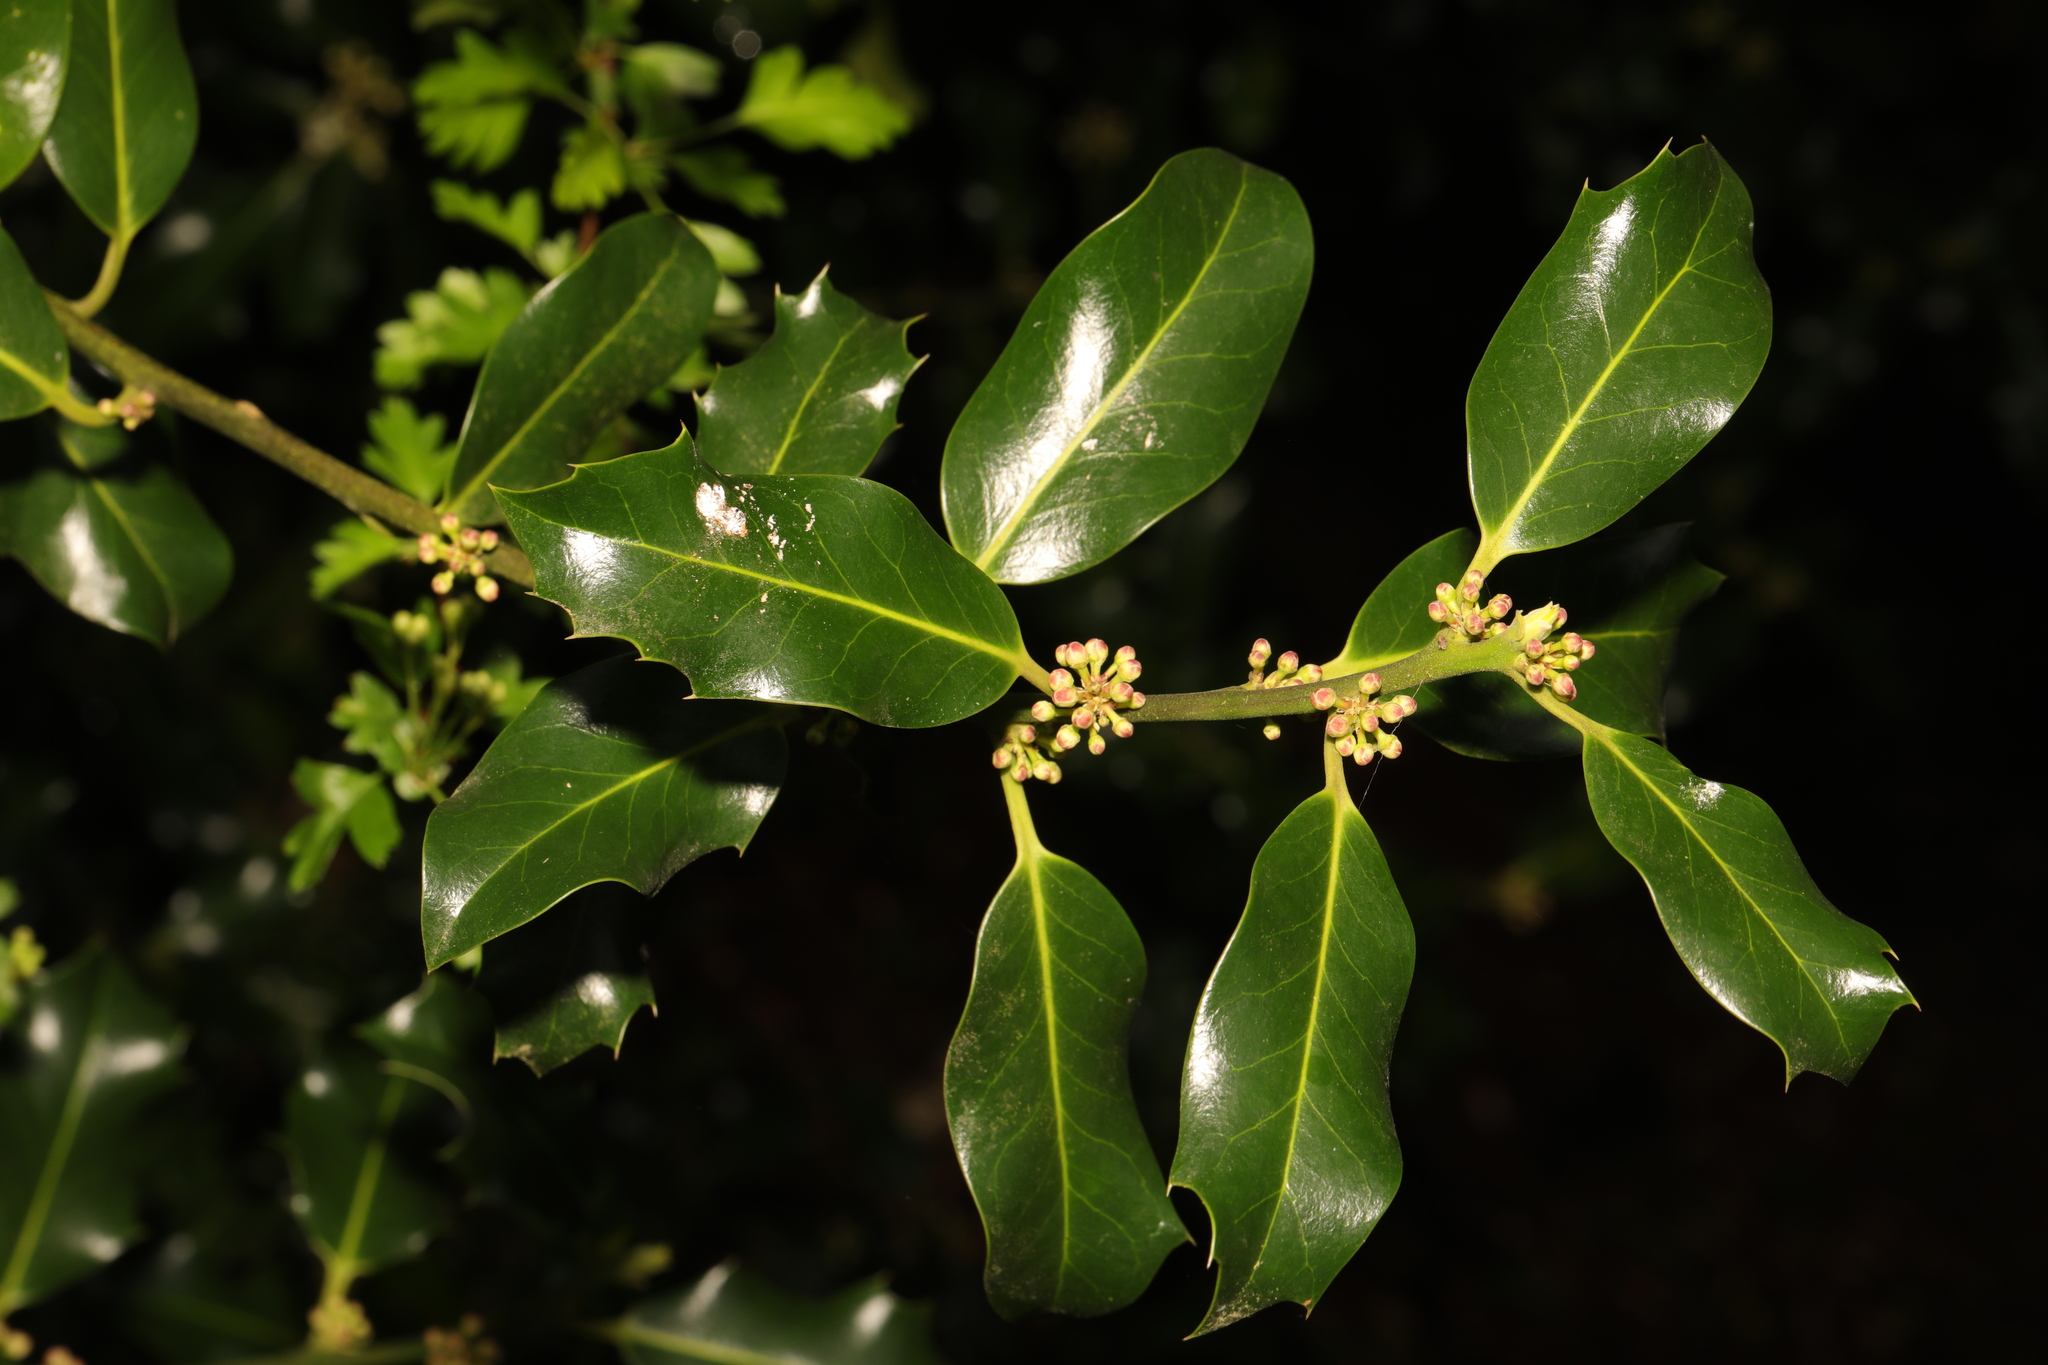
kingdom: Plantae
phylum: Tracheophyta
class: Magnoliopsida
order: Aquifoliales
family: Aquifoliaceae
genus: Ilex
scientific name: Ilex aquifolium
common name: English holly
